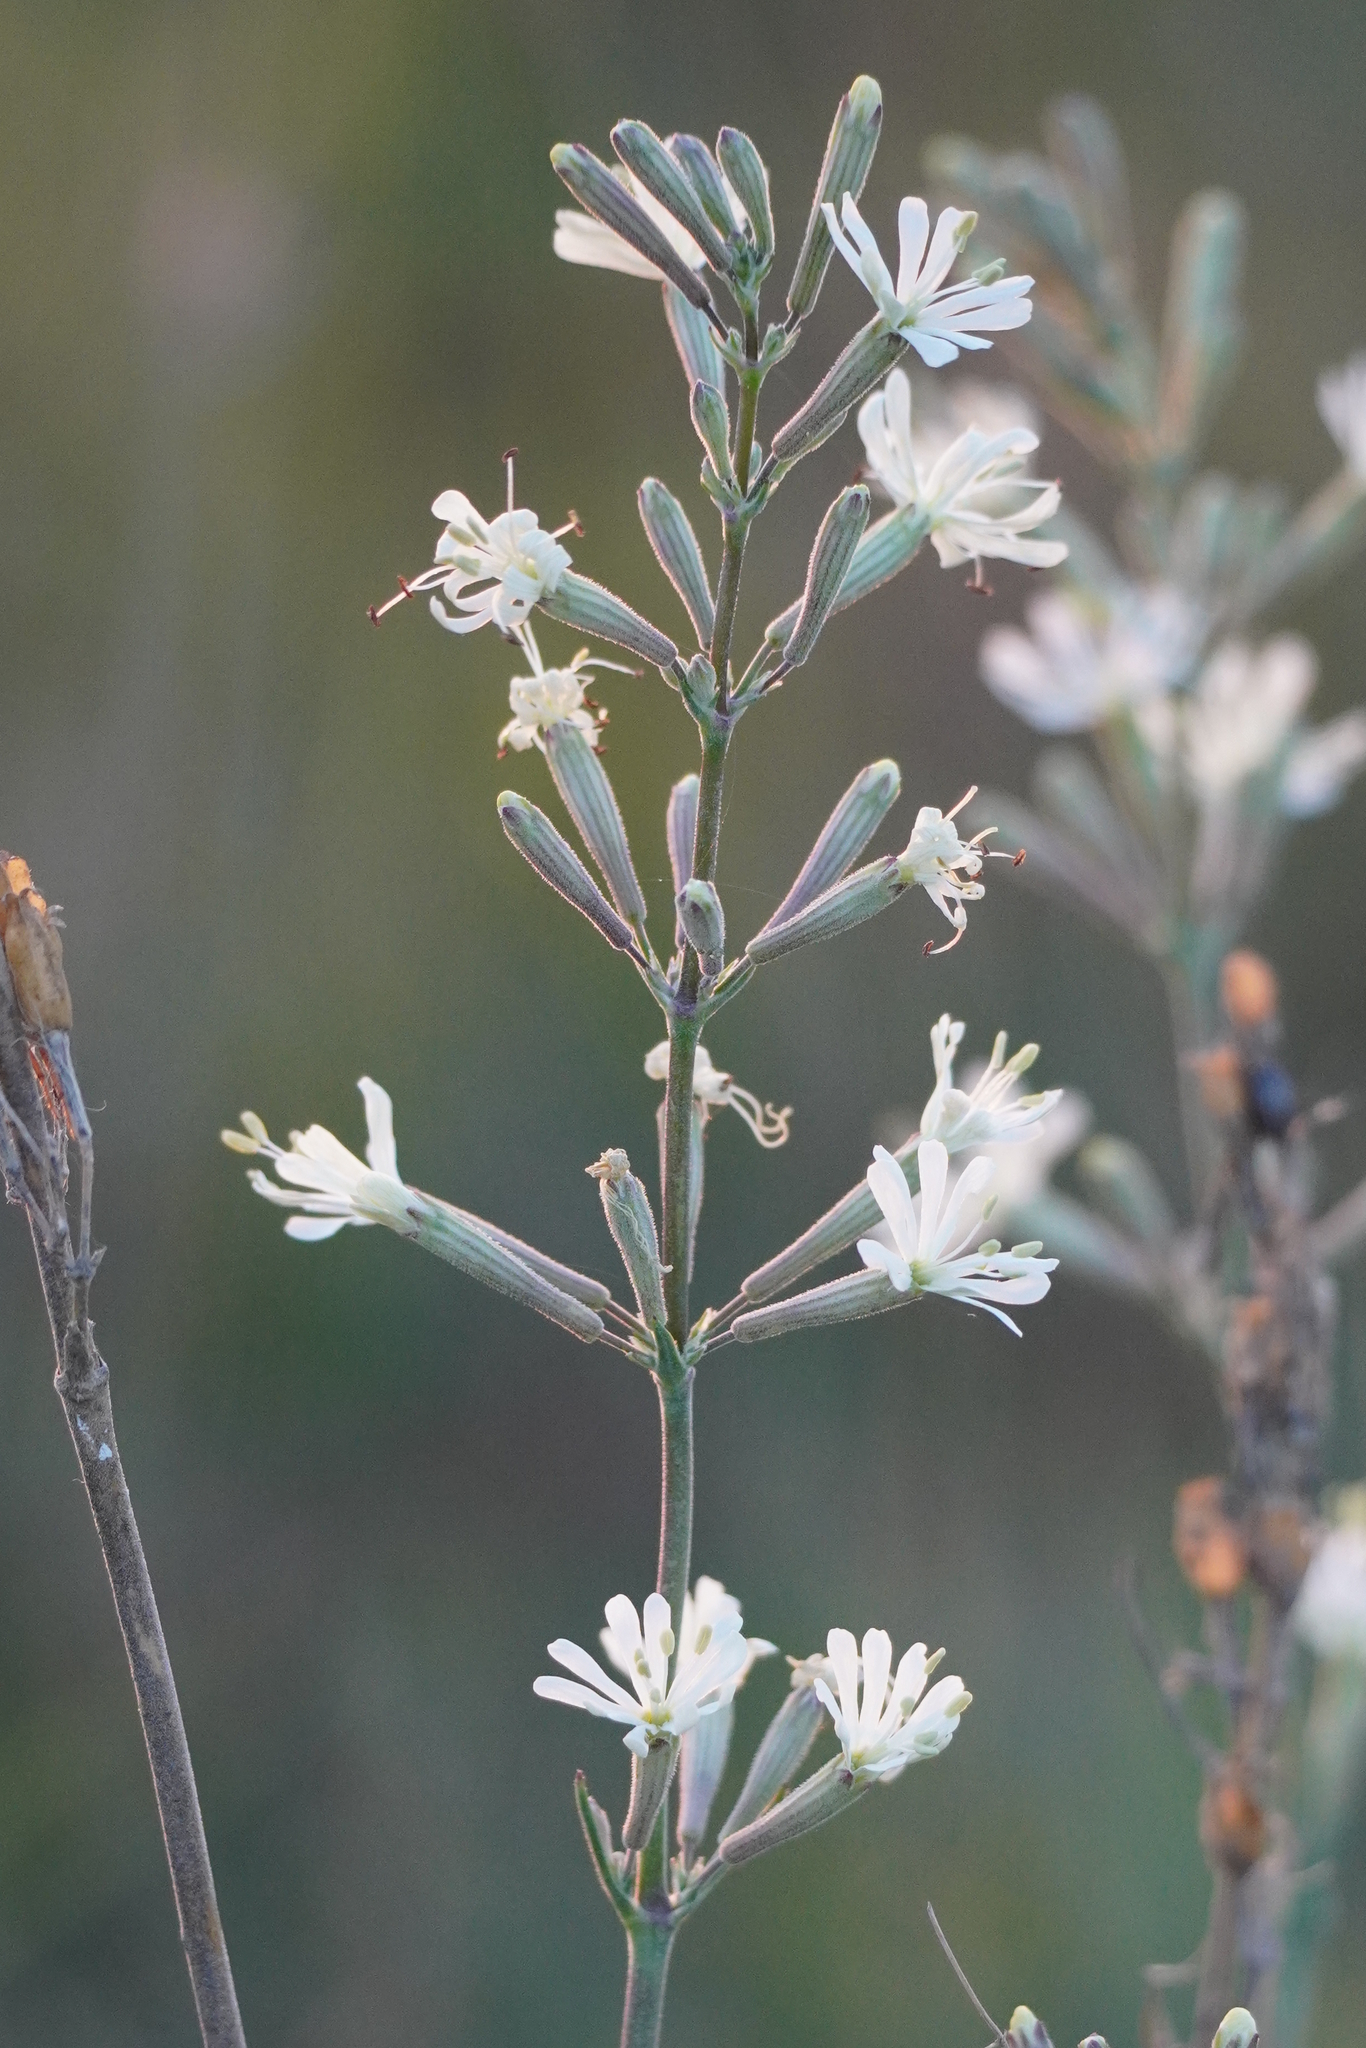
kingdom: Plantae
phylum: Tracheophyta
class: Magnoliopsida
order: Caryophyllales
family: Caryophyllaceae
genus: Silene
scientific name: Silene multiflora
